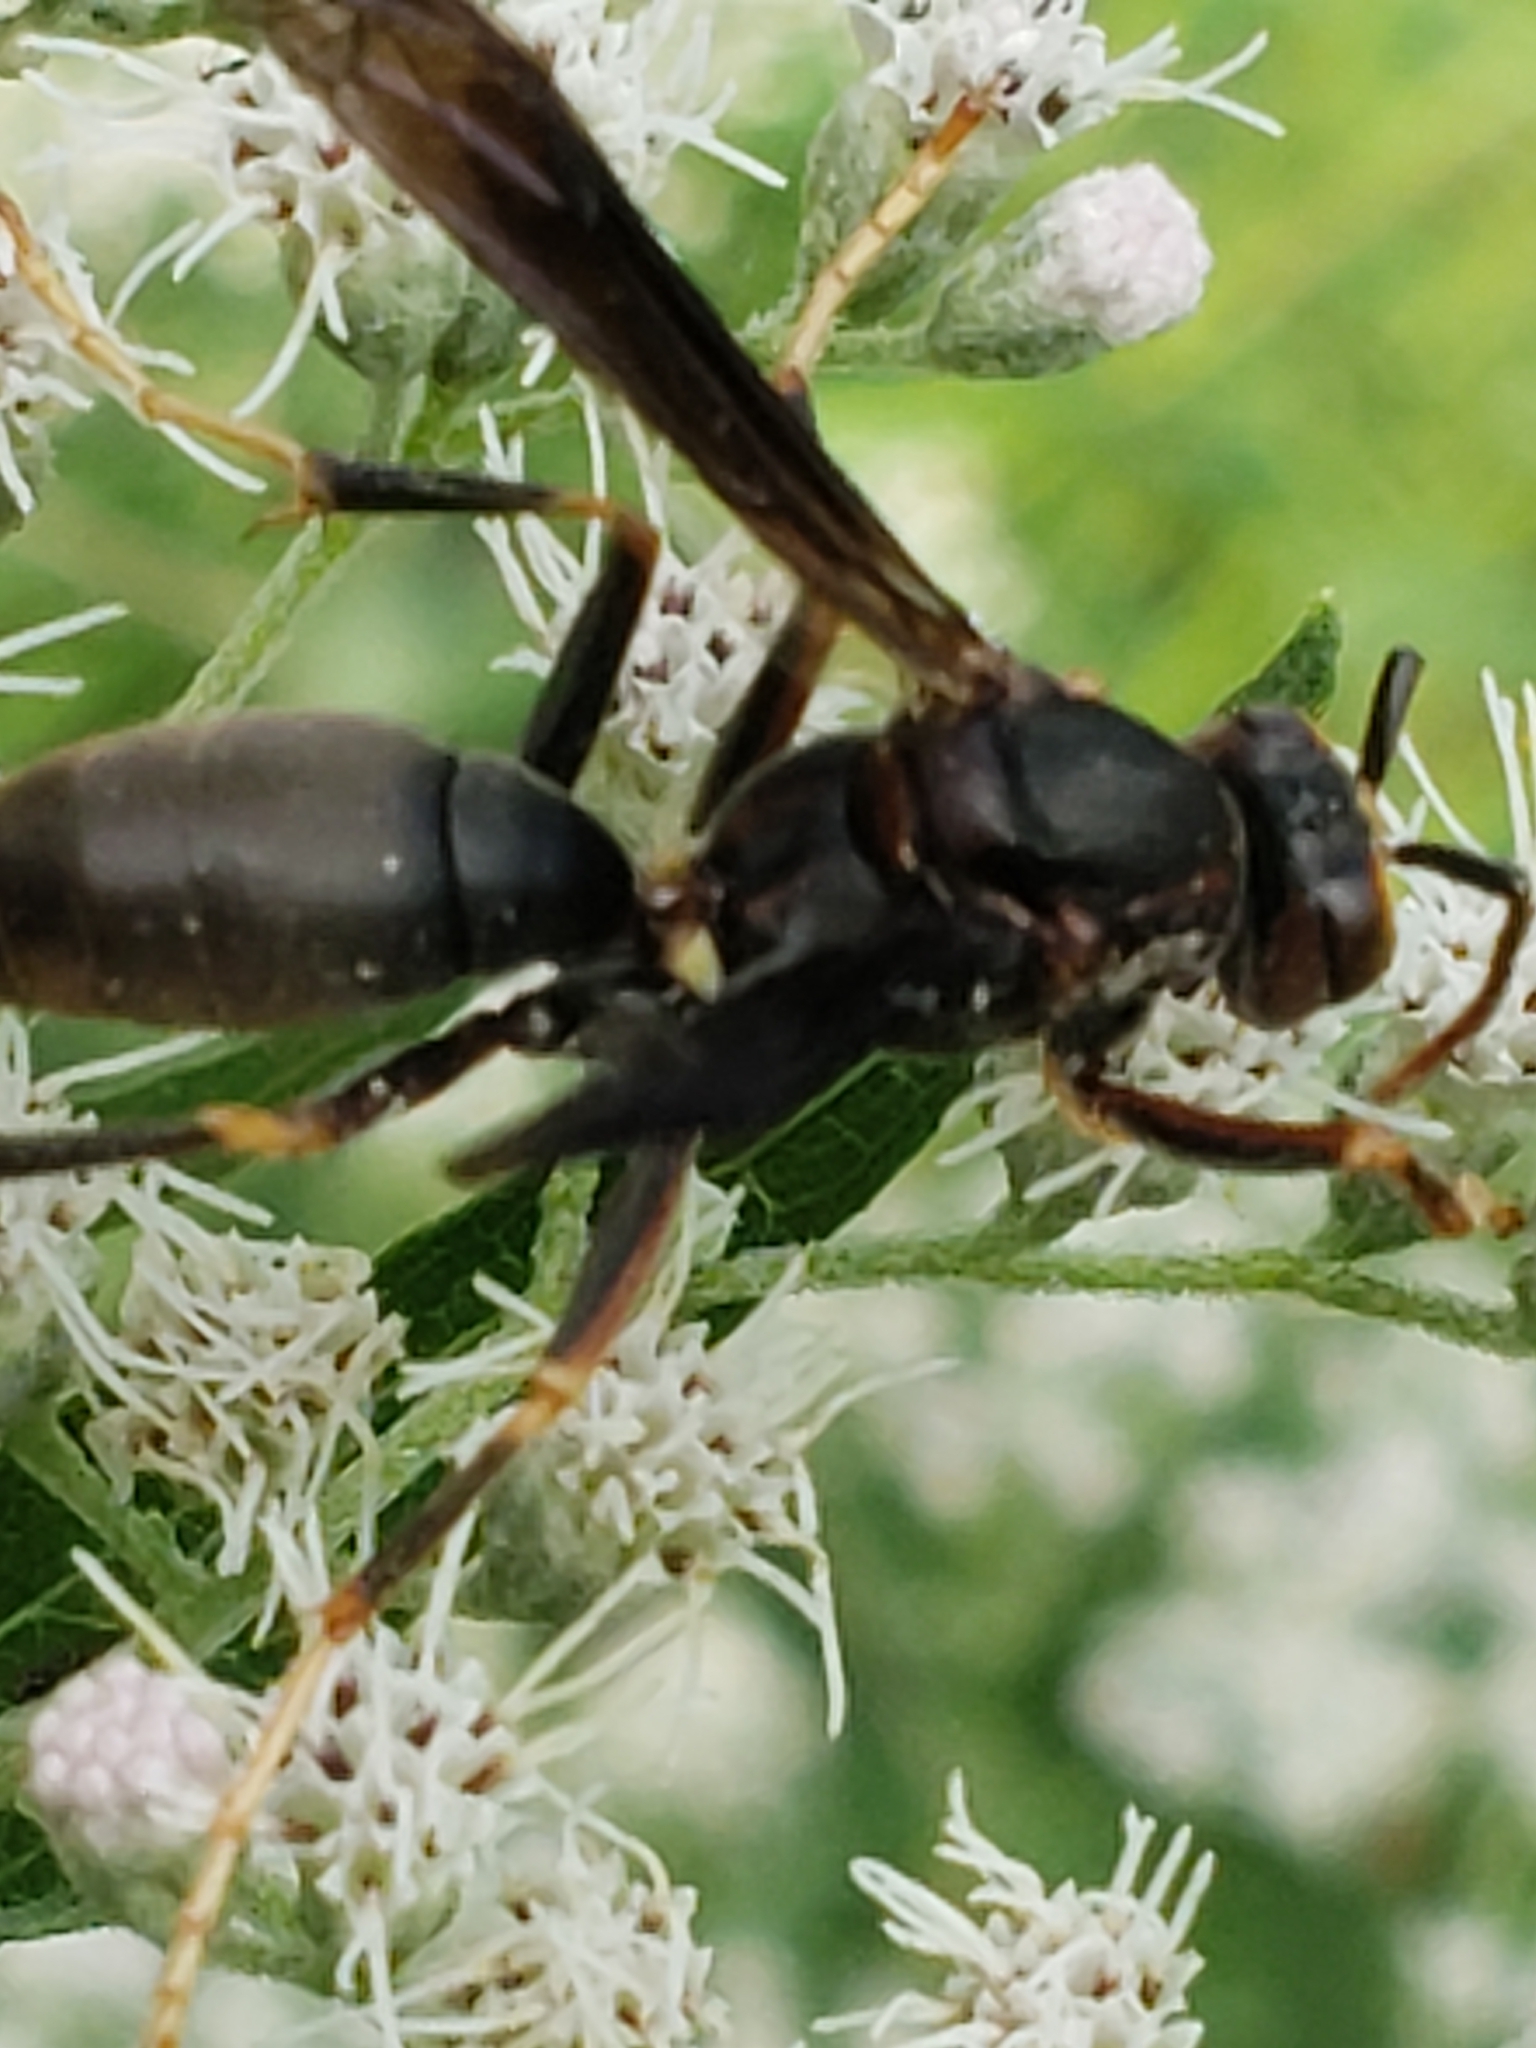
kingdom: Animalia
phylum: Arthropoda
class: Insecta
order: Hymenoptera
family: Eumenidae
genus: Polistes
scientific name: Polistes metricus
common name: Metric paper wasp
